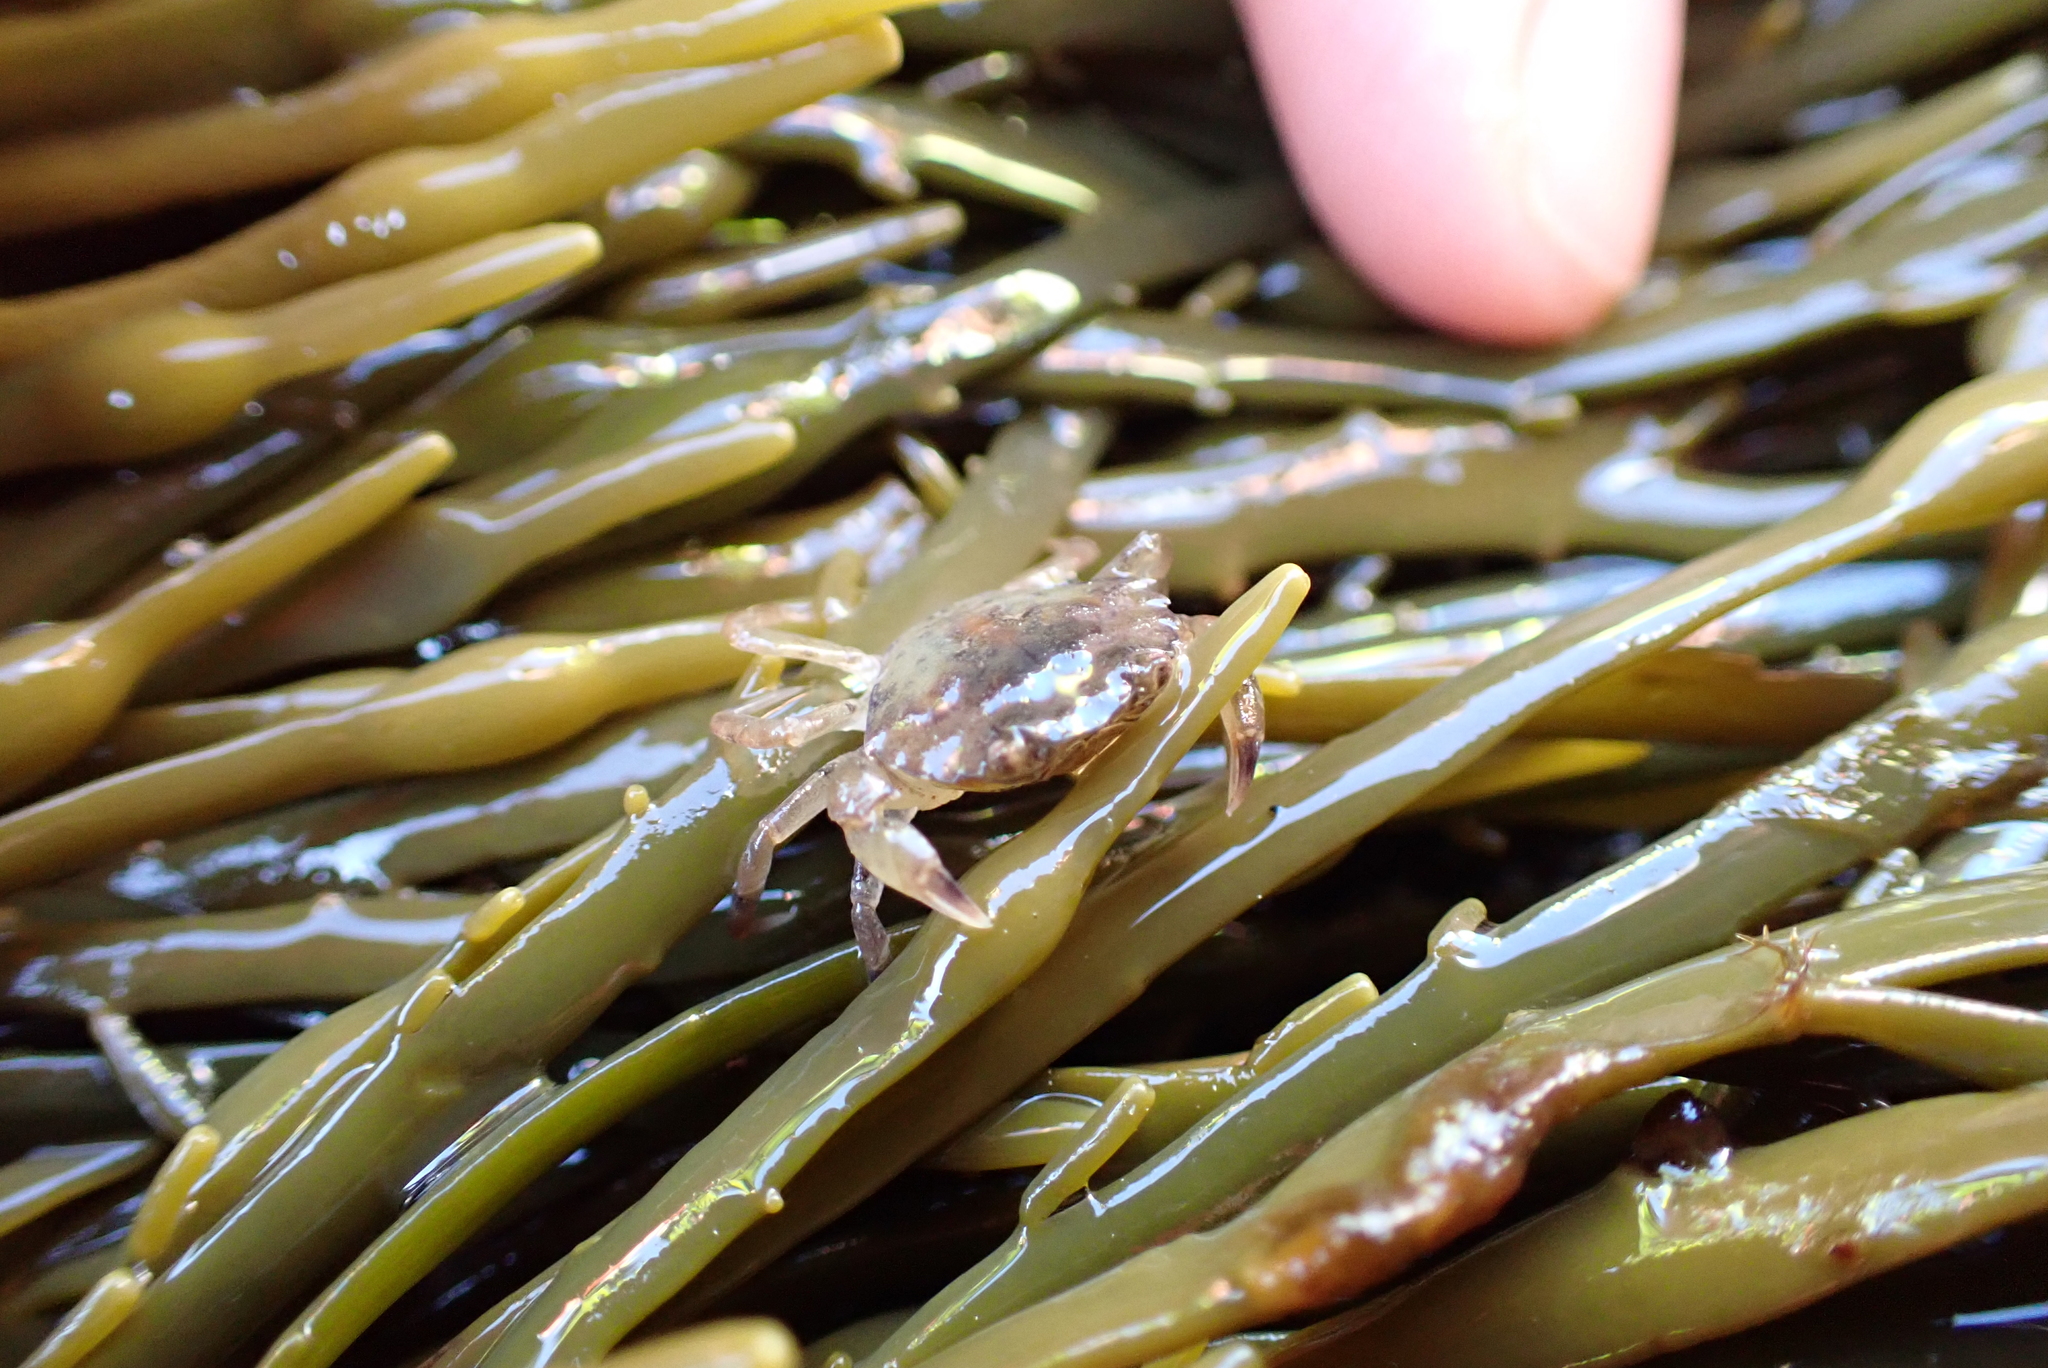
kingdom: Animalia
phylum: Arthropoda
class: Malacostraca
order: Decapoda
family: Carcinidae
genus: Carcinus
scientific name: Carcinus maenas
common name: European green crab
